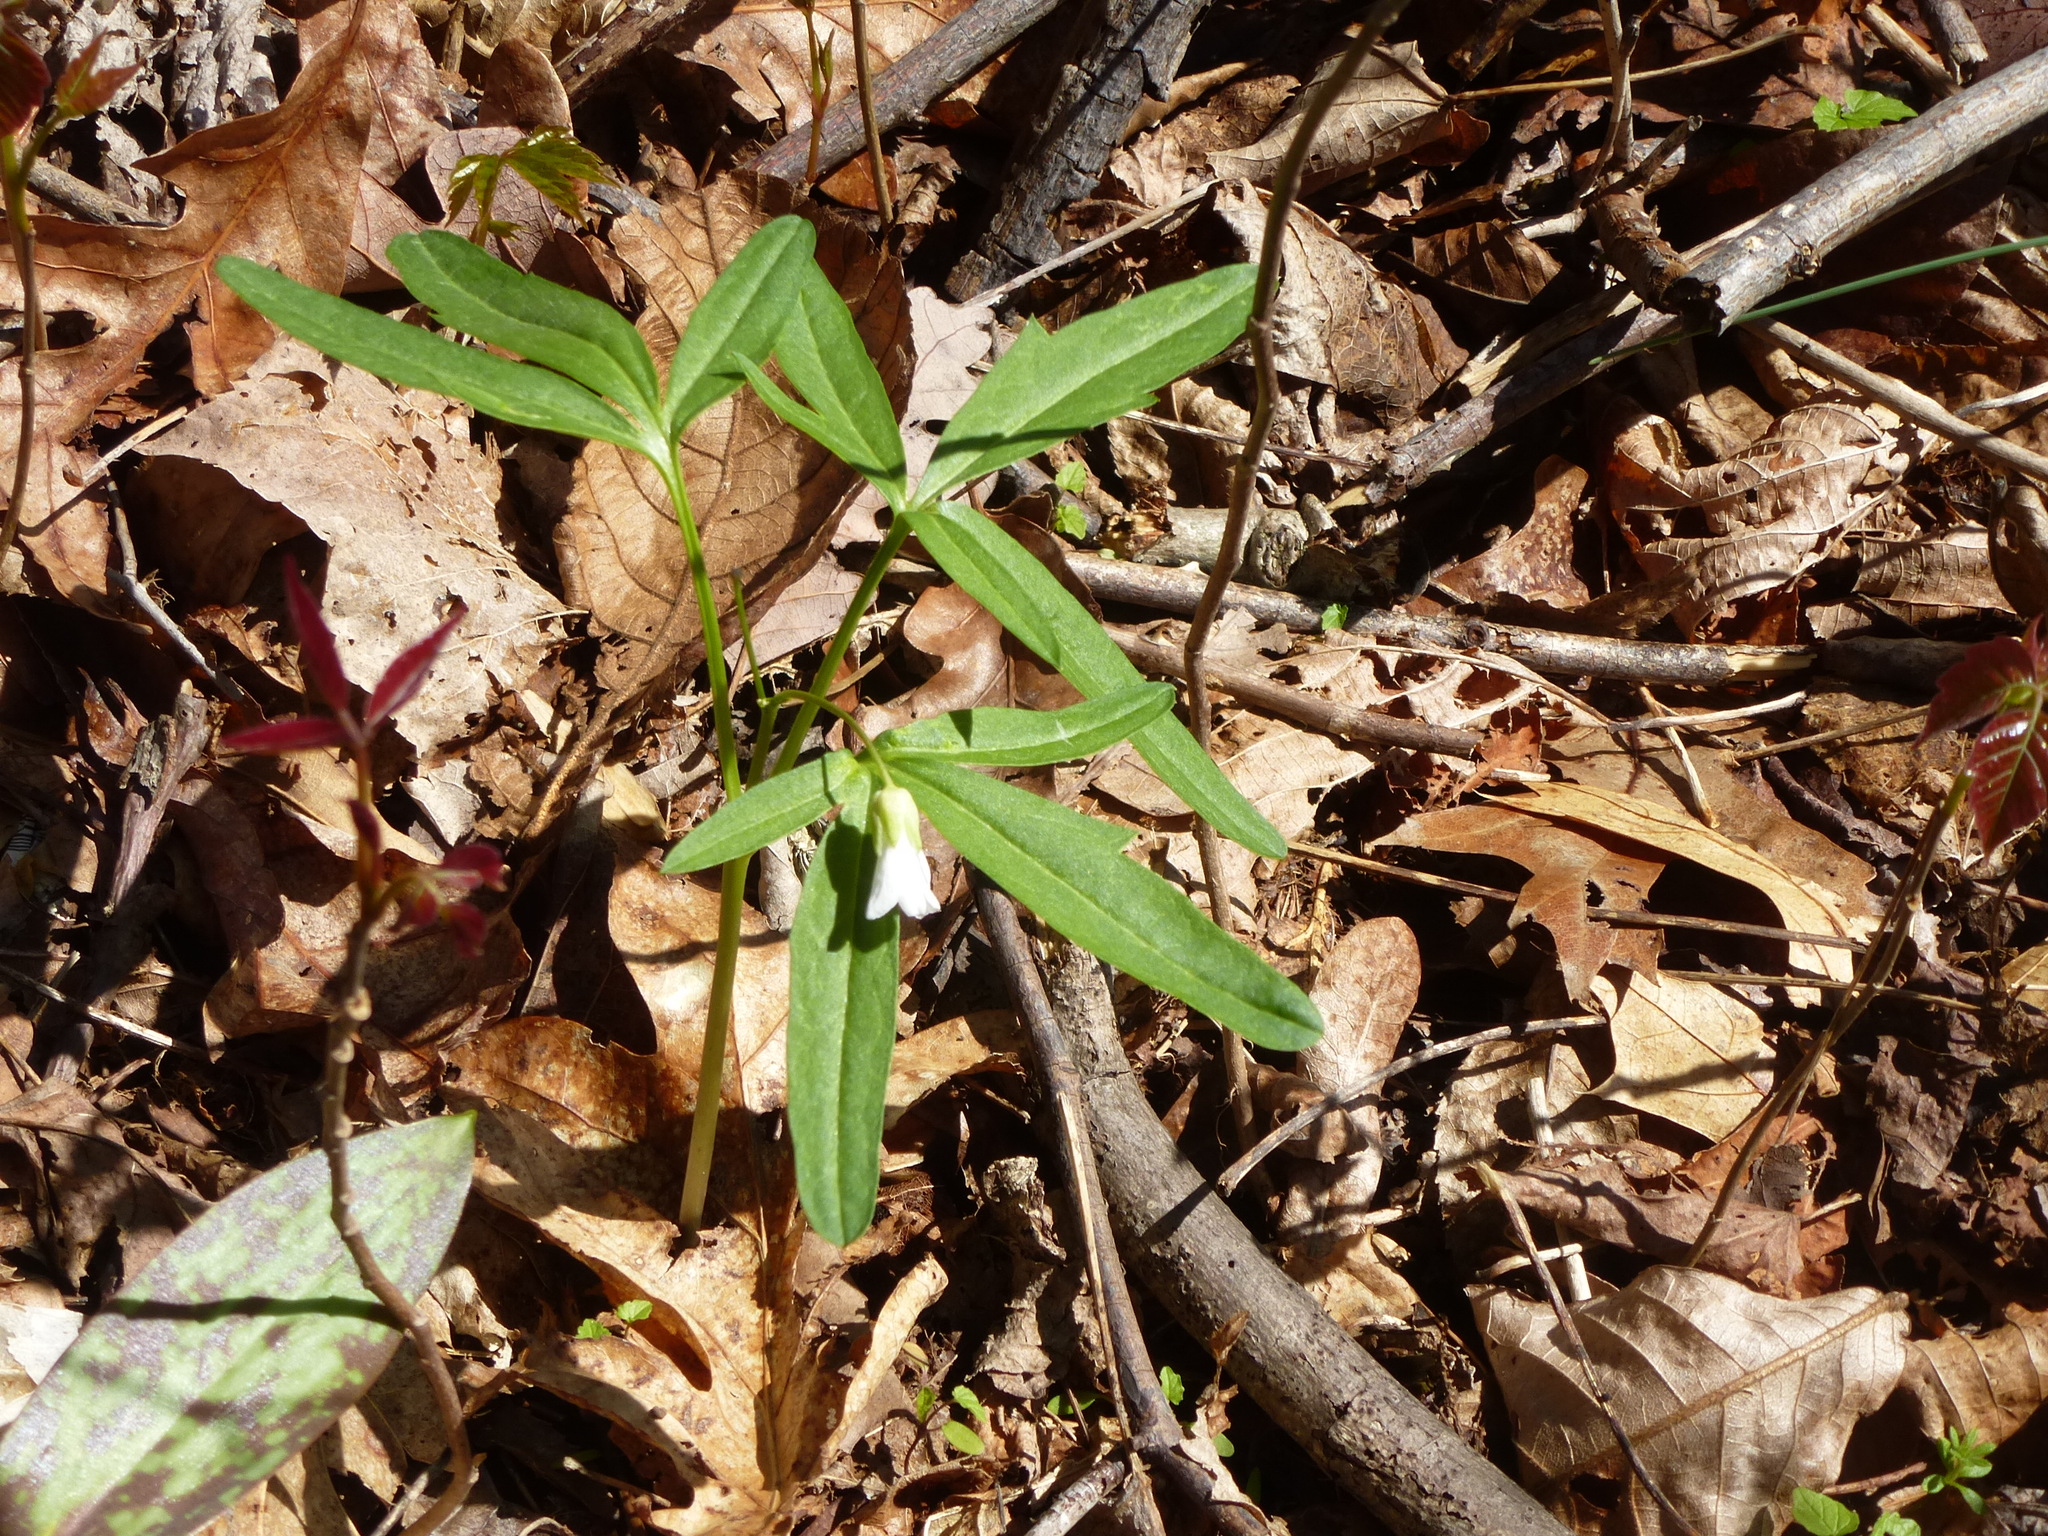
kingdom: Plantae
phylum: Tracheophyta
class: Magnoliopsida
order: Brassicales
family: Brassicaceae
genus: Cardamine
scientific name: Cardamine concatenata
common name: Cut-leaf toothcup
